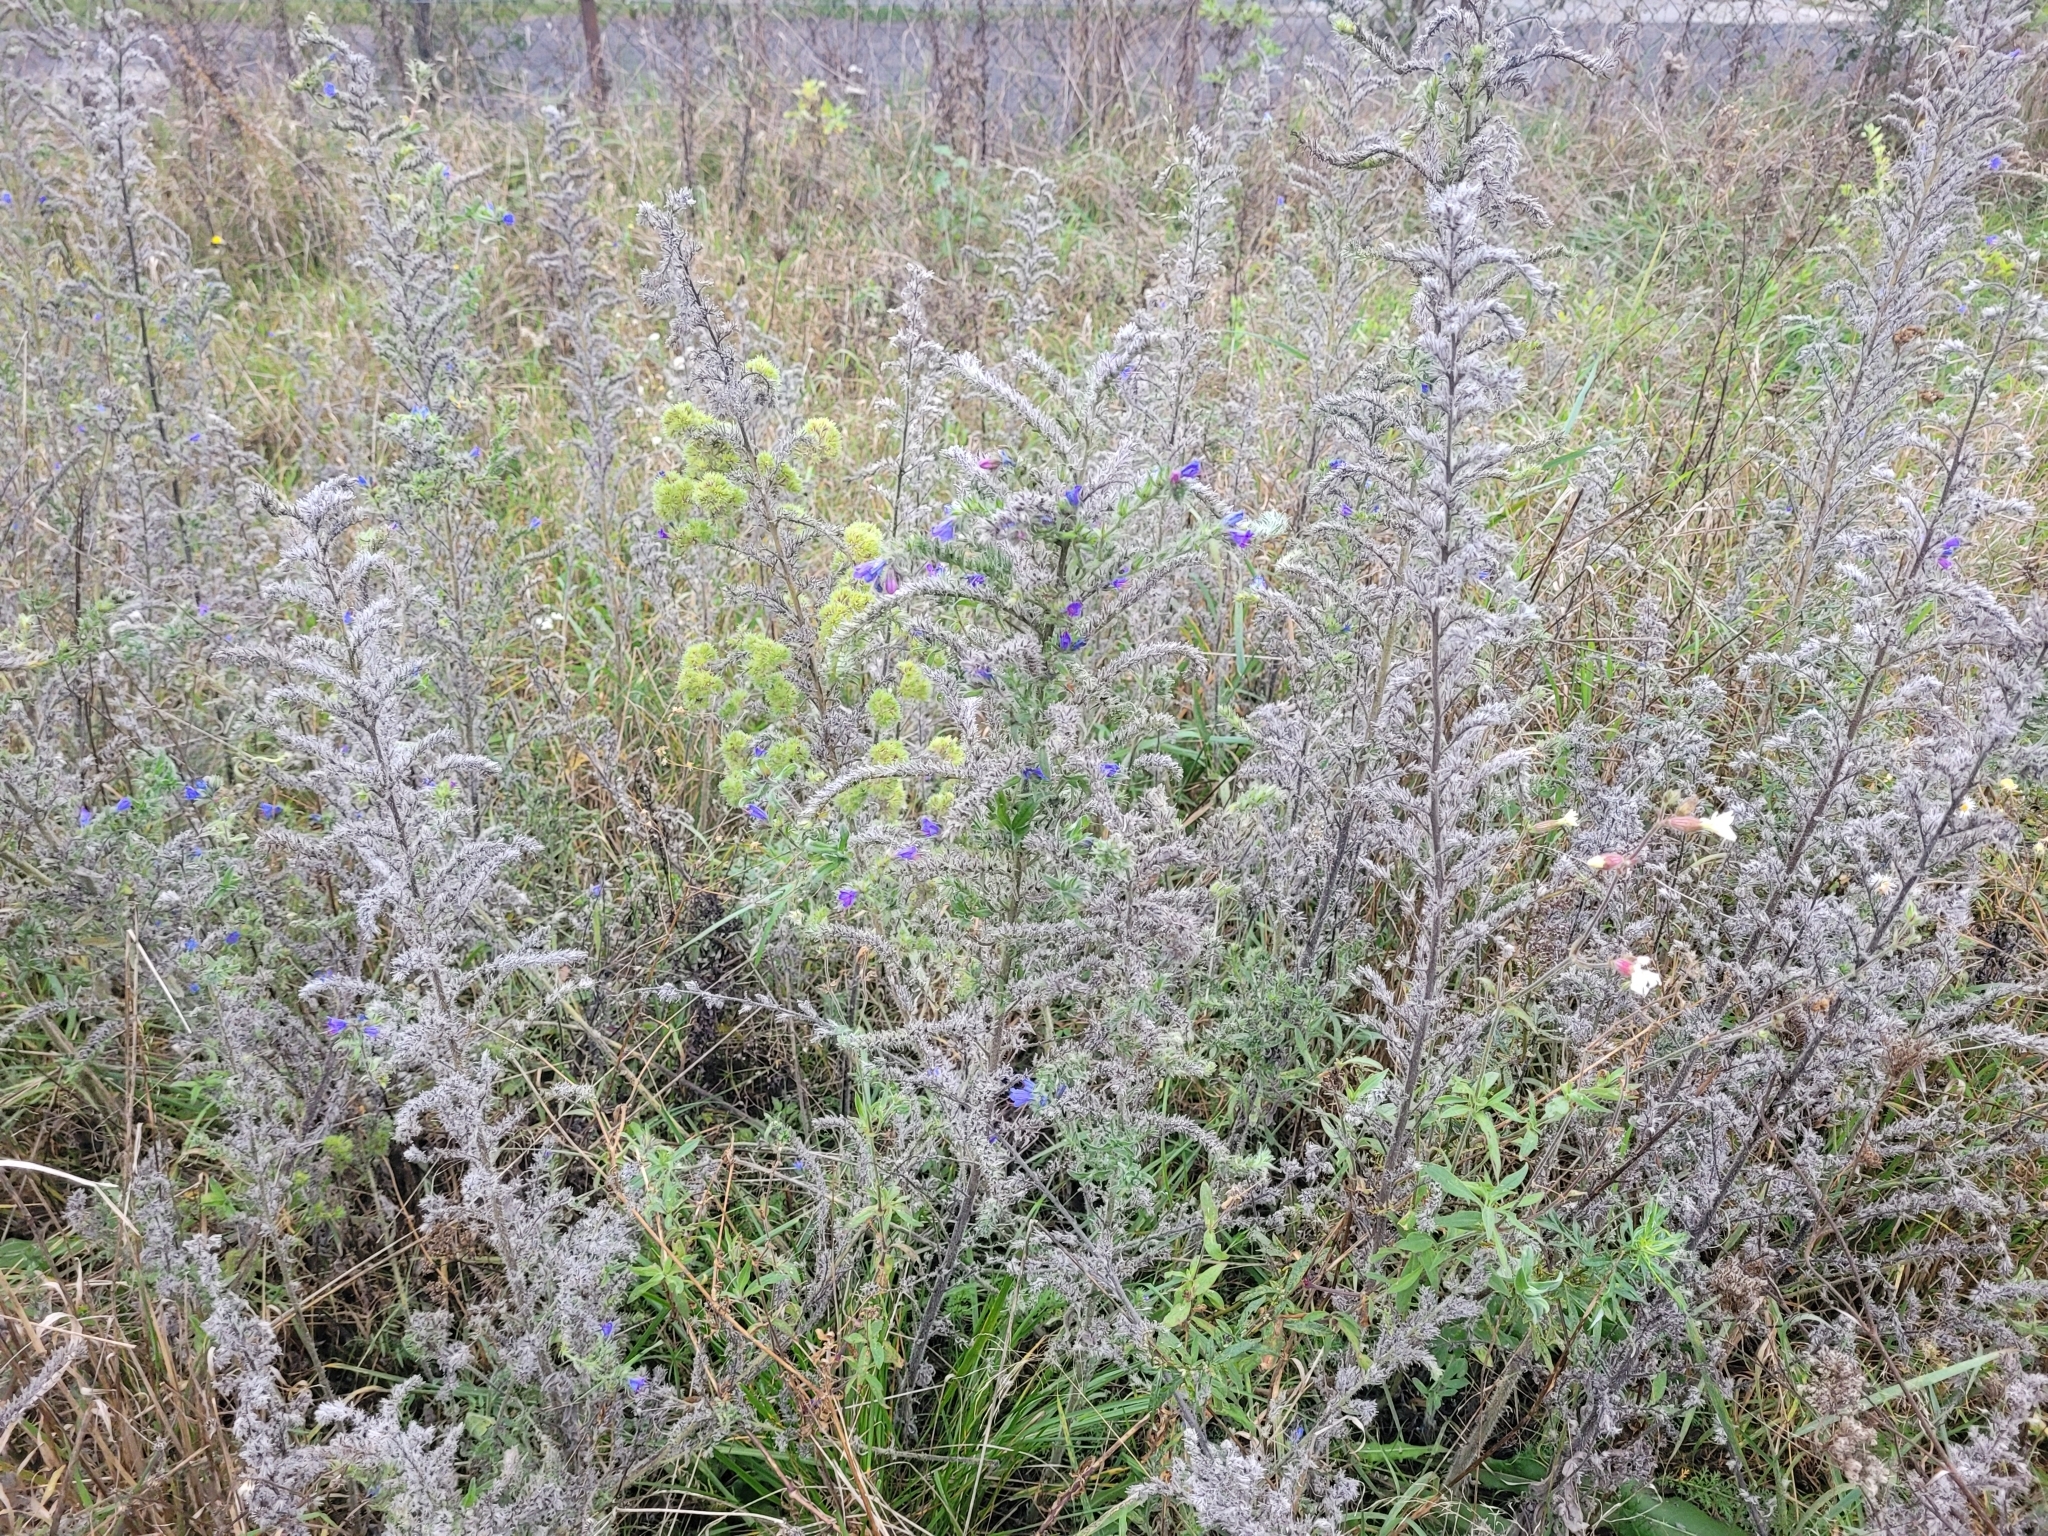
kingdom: Plantae
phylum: Tracheophyta
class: Magnoliopsida
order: Boraginales
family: Boraginaceae
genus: Echium
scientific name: Echium vulgare
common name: Common viper's bugloss
